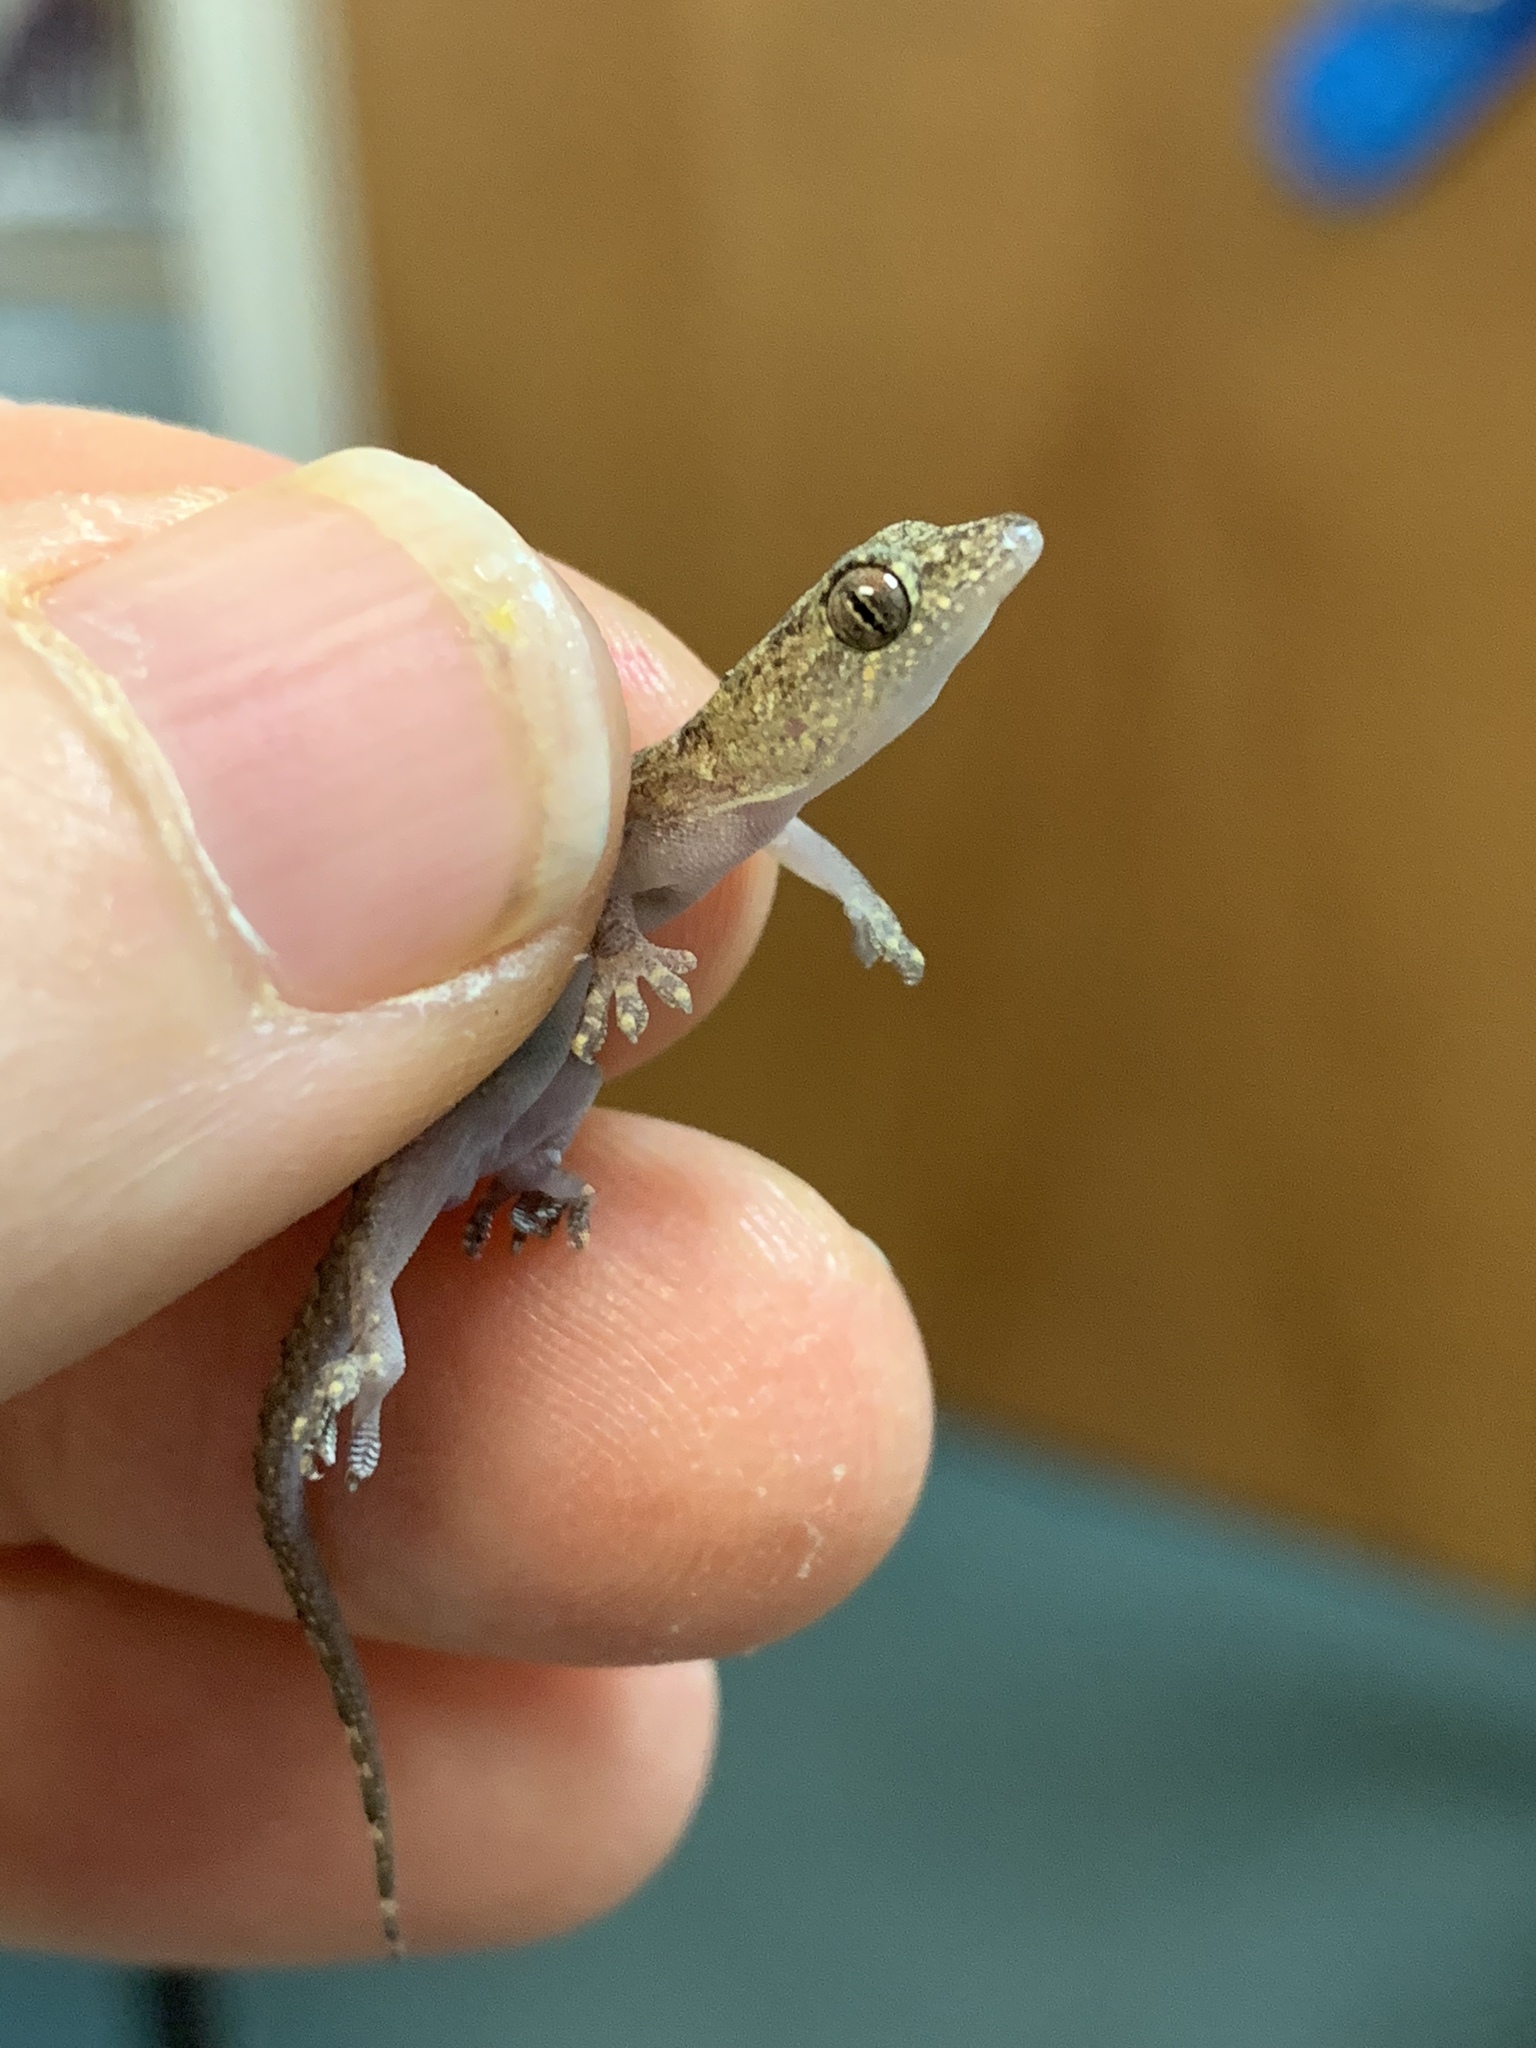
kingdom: Animalia
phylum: Chordata
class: Squamata
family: Gekkonidae
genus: Hemidactylus
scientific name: Hemidactylus mabouia
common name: House gecko
